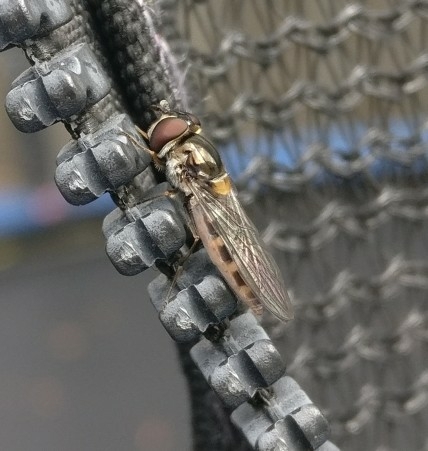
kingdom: Animalia
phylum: Arthropoda
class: Insecta
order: Diptera
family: Syrphidae
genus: Melangyna
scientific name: Melangyna novaezelandiae
